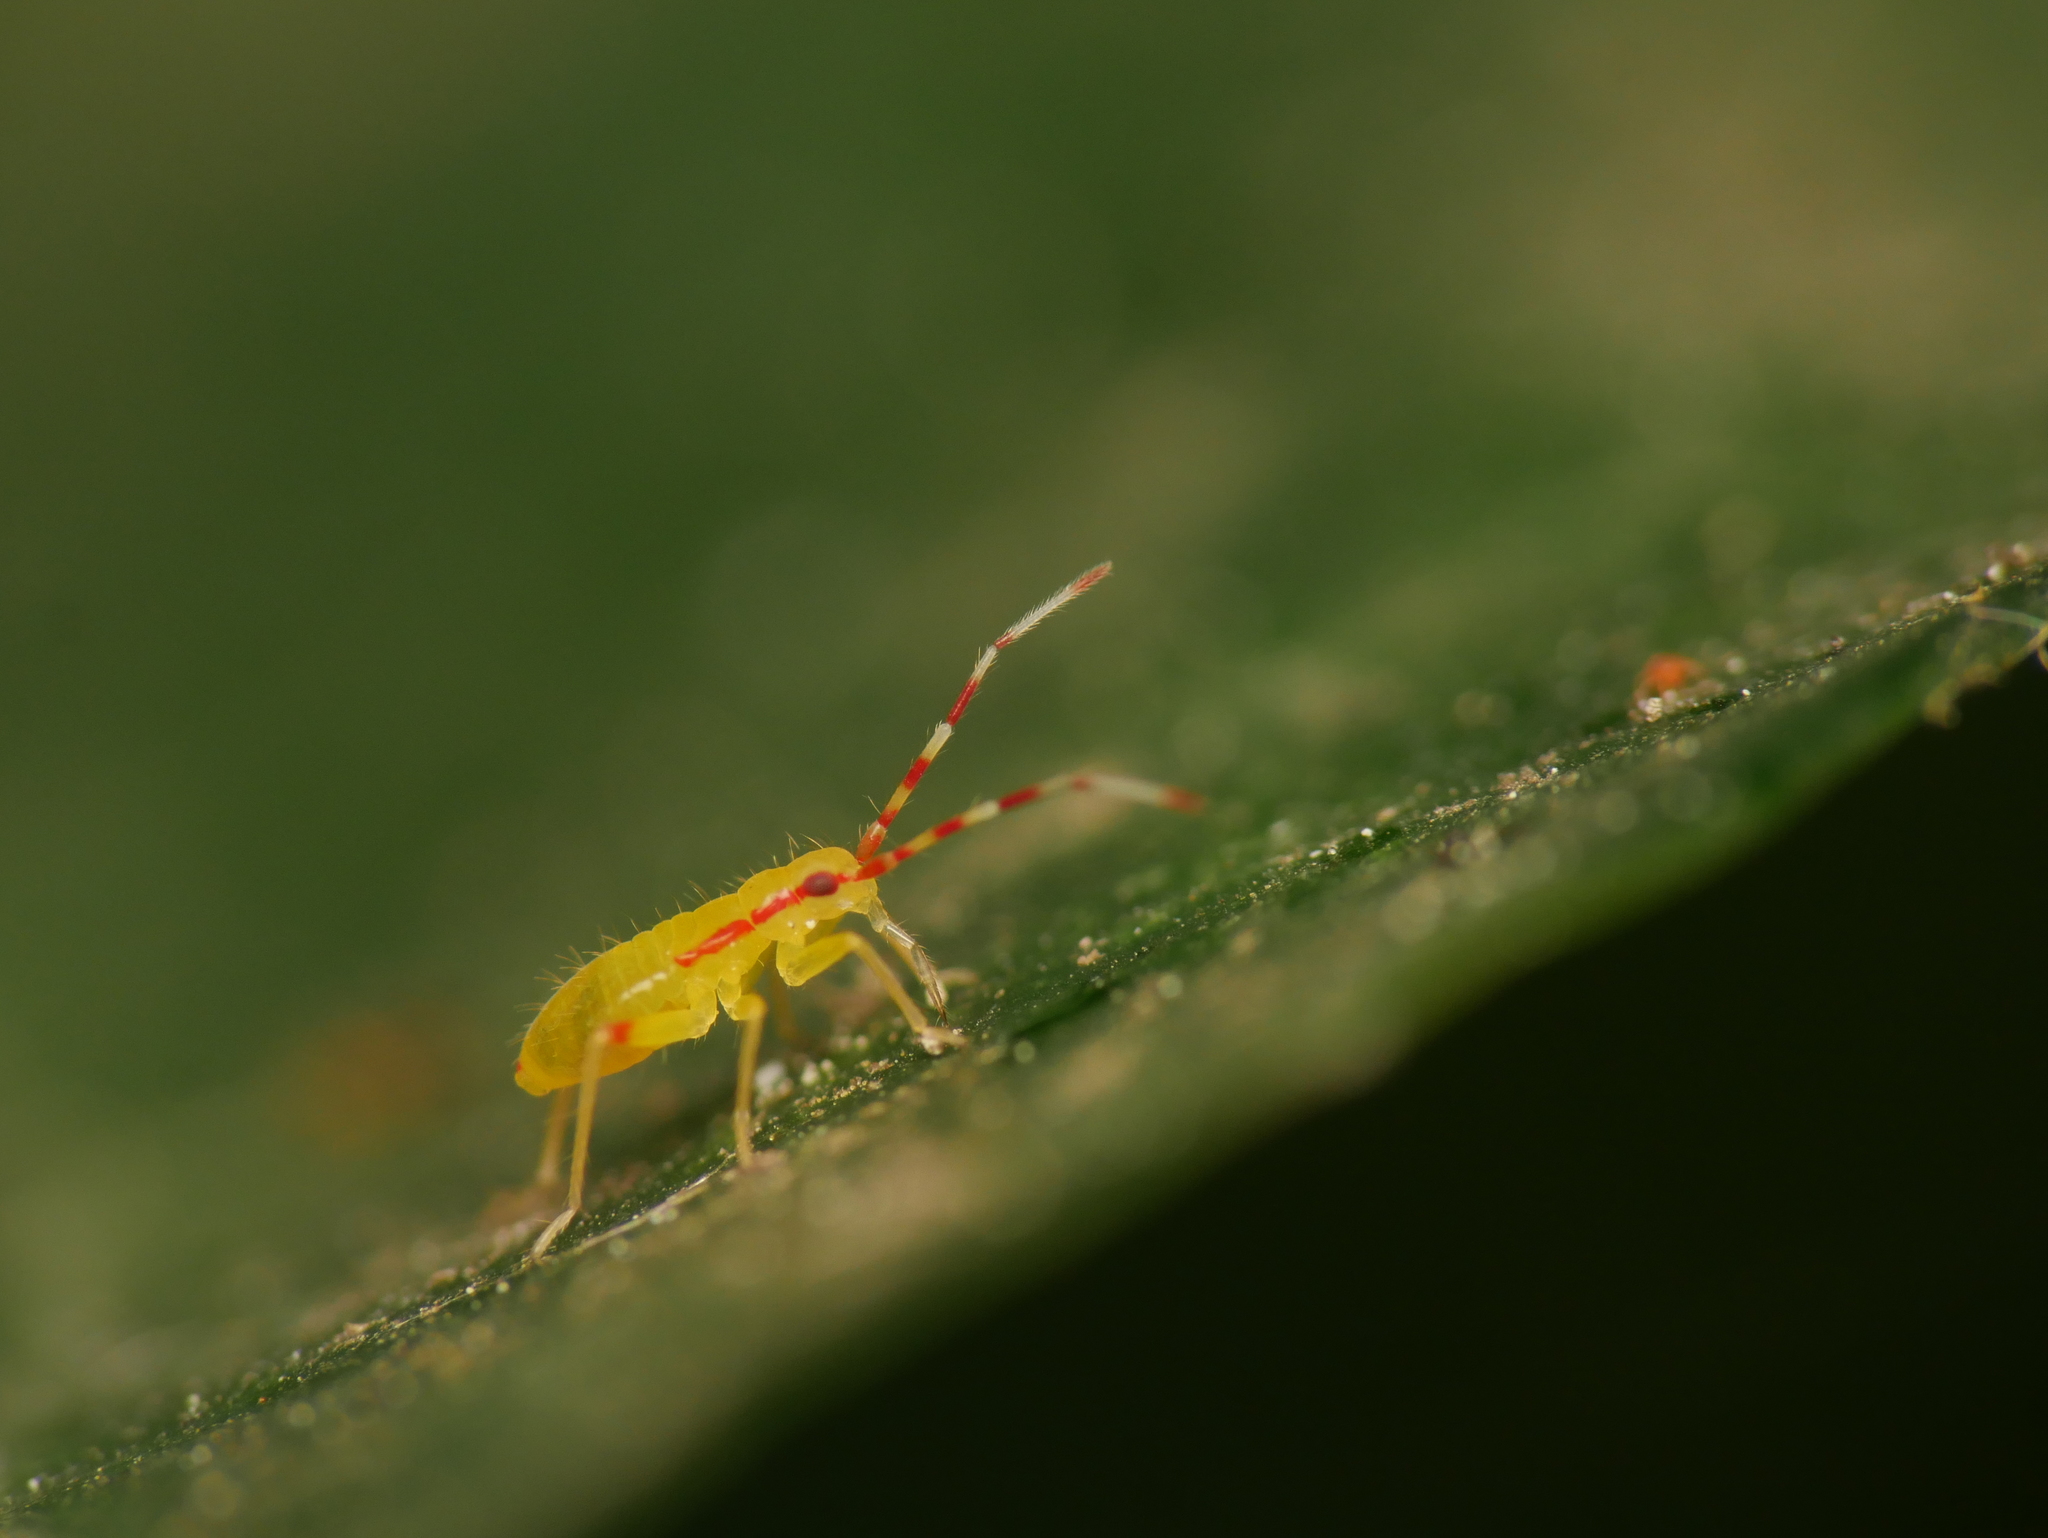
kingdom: Animalia
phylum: Arthropoda
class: Insecta
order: Hemiptera
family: Miridae
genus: Campyloneura
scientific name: Campyloneura virgula
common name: Predatory bug
